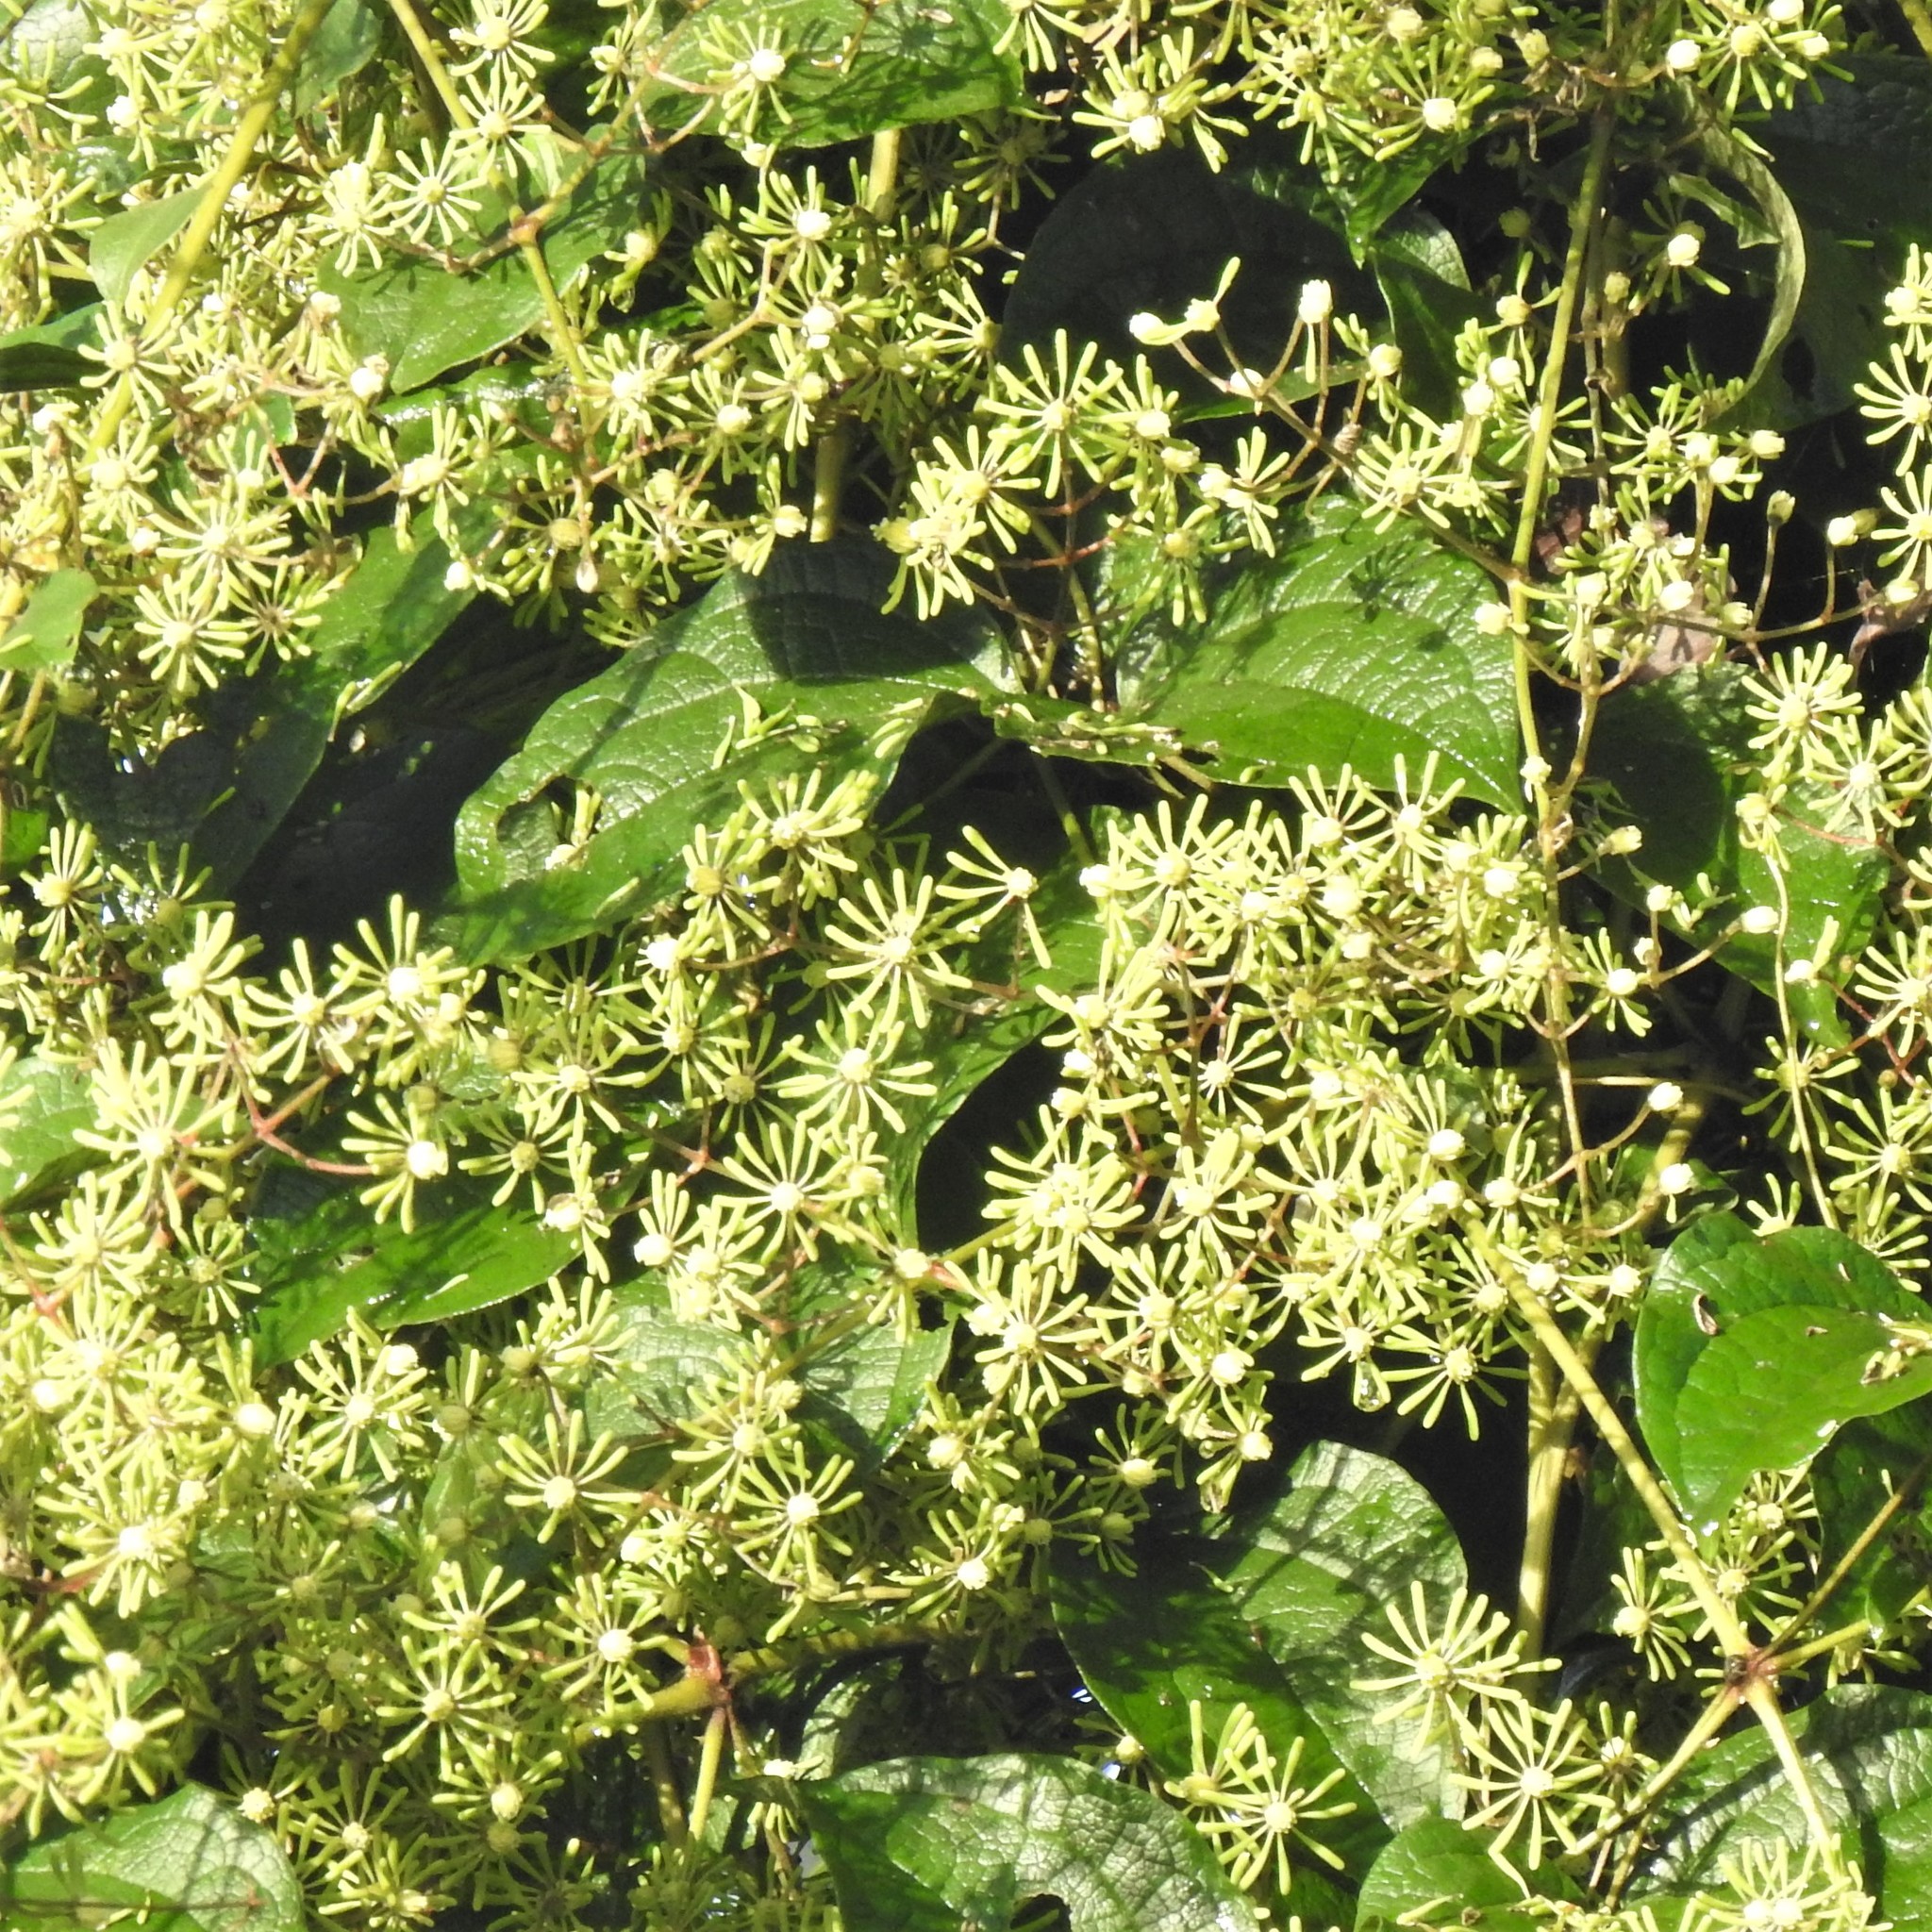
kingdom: Plantae
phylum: Tracheophyta
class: Magnoliopsida
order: Ranunculales
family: Ranunculaceae
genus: Clematis
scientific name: Clematis zeylanica
